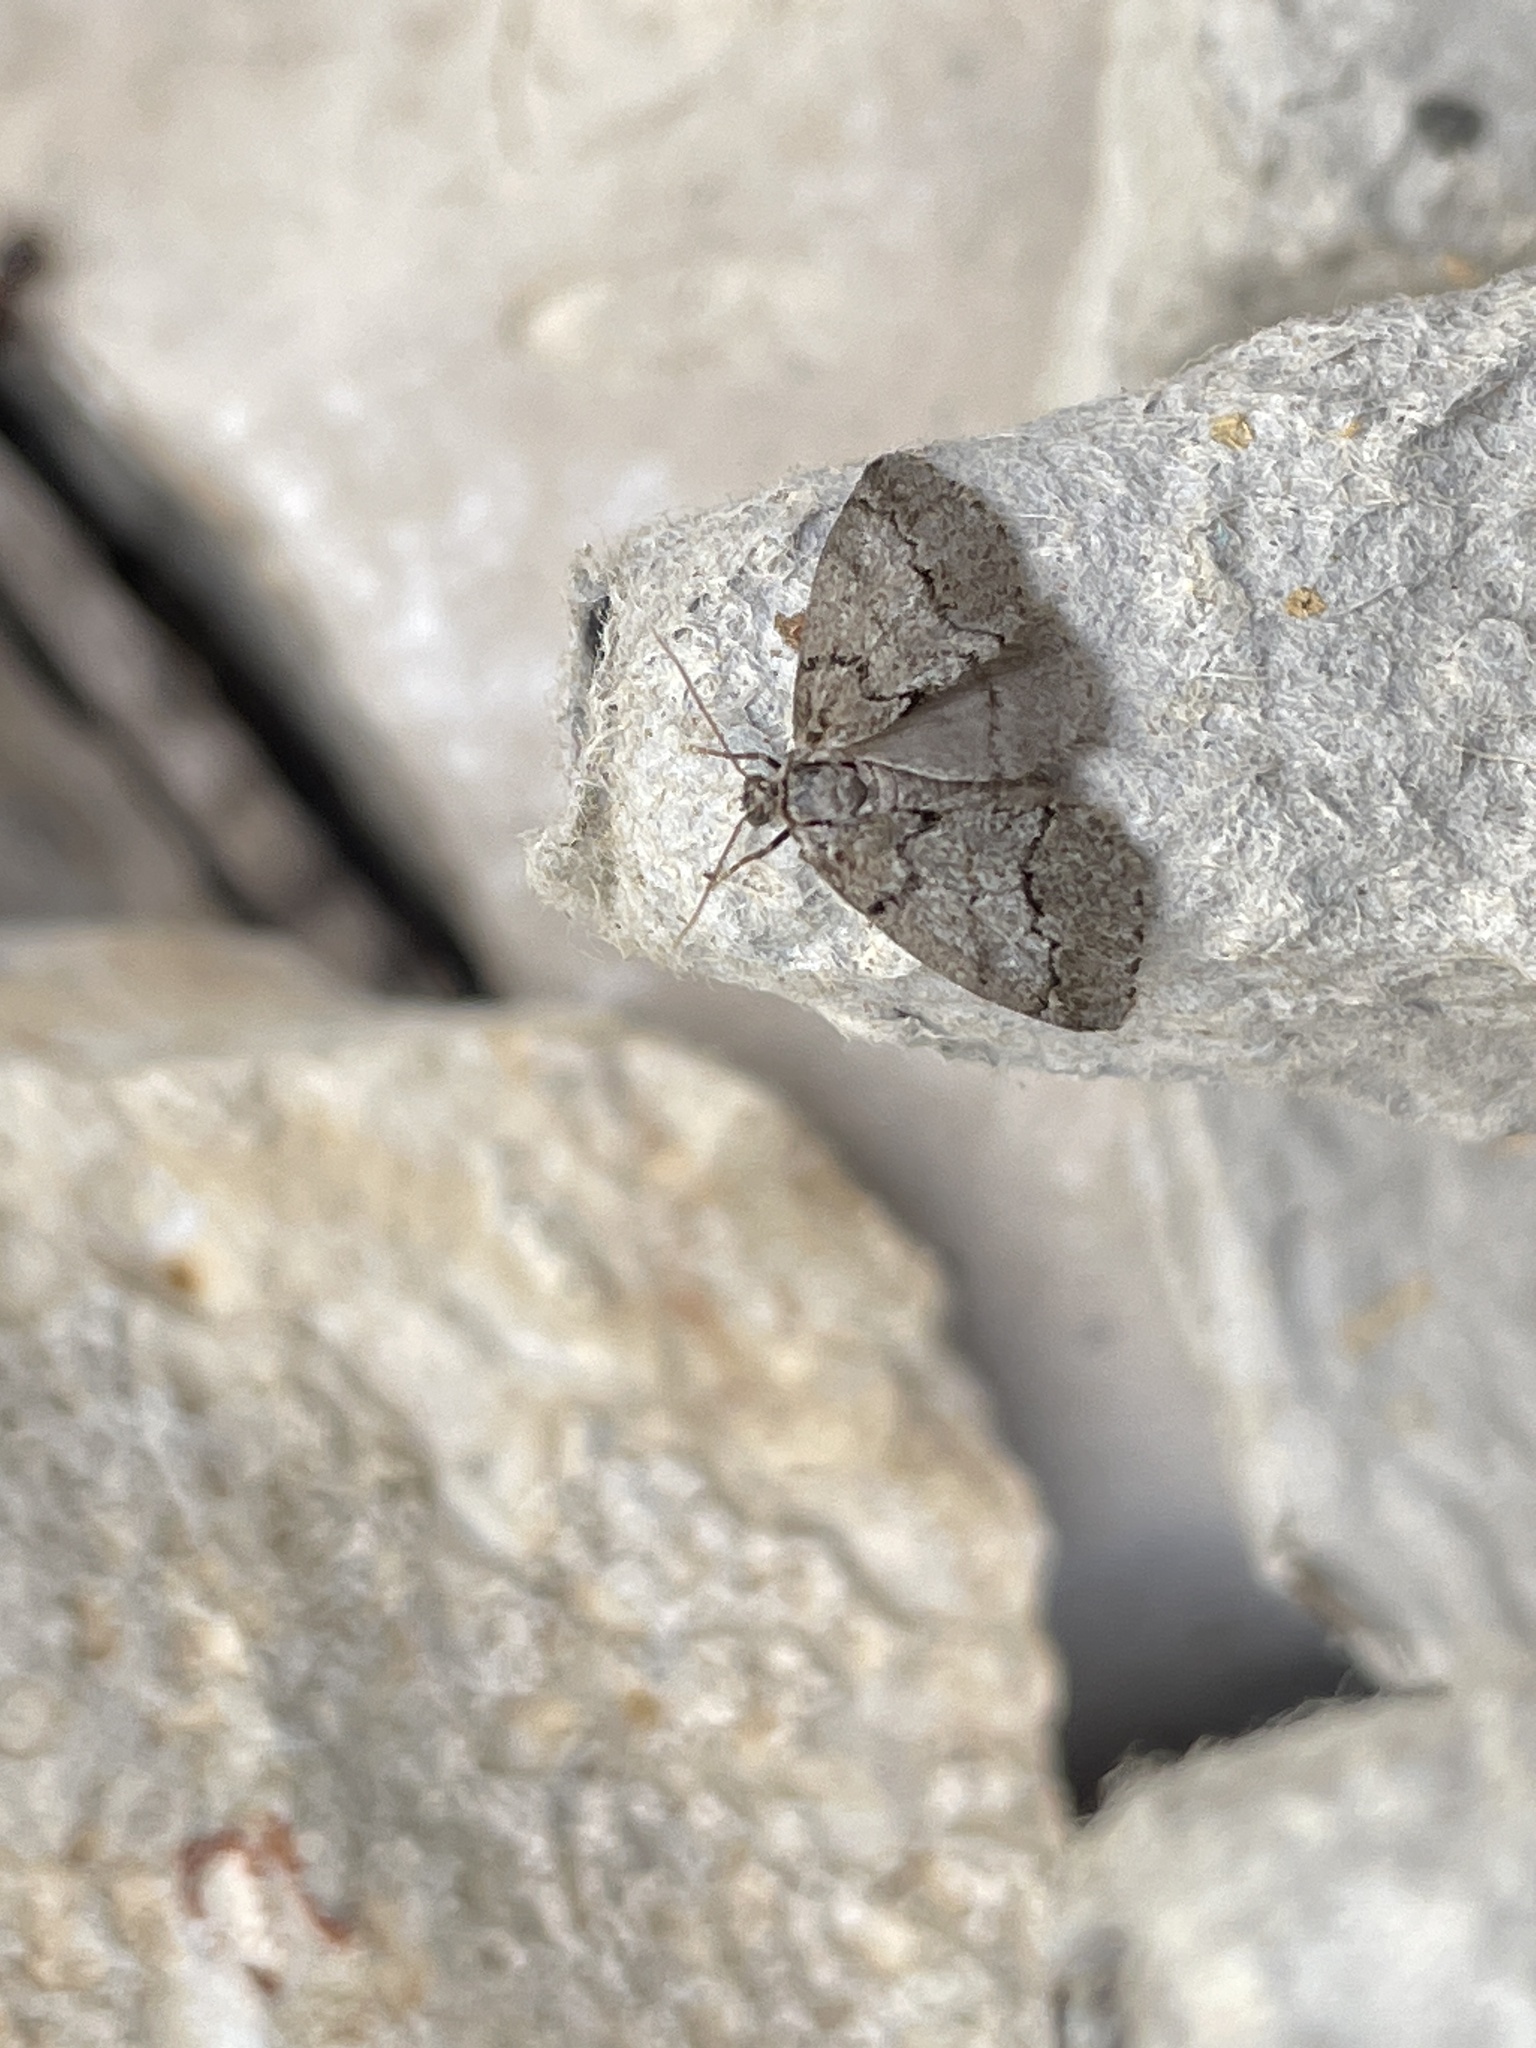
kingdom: Animalia
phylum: Arthropoda
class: Insecta
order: Lepidoptera
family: Geometridae
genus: Tephronia
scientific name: Tephronia sepiaria
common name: Dusky carpet
